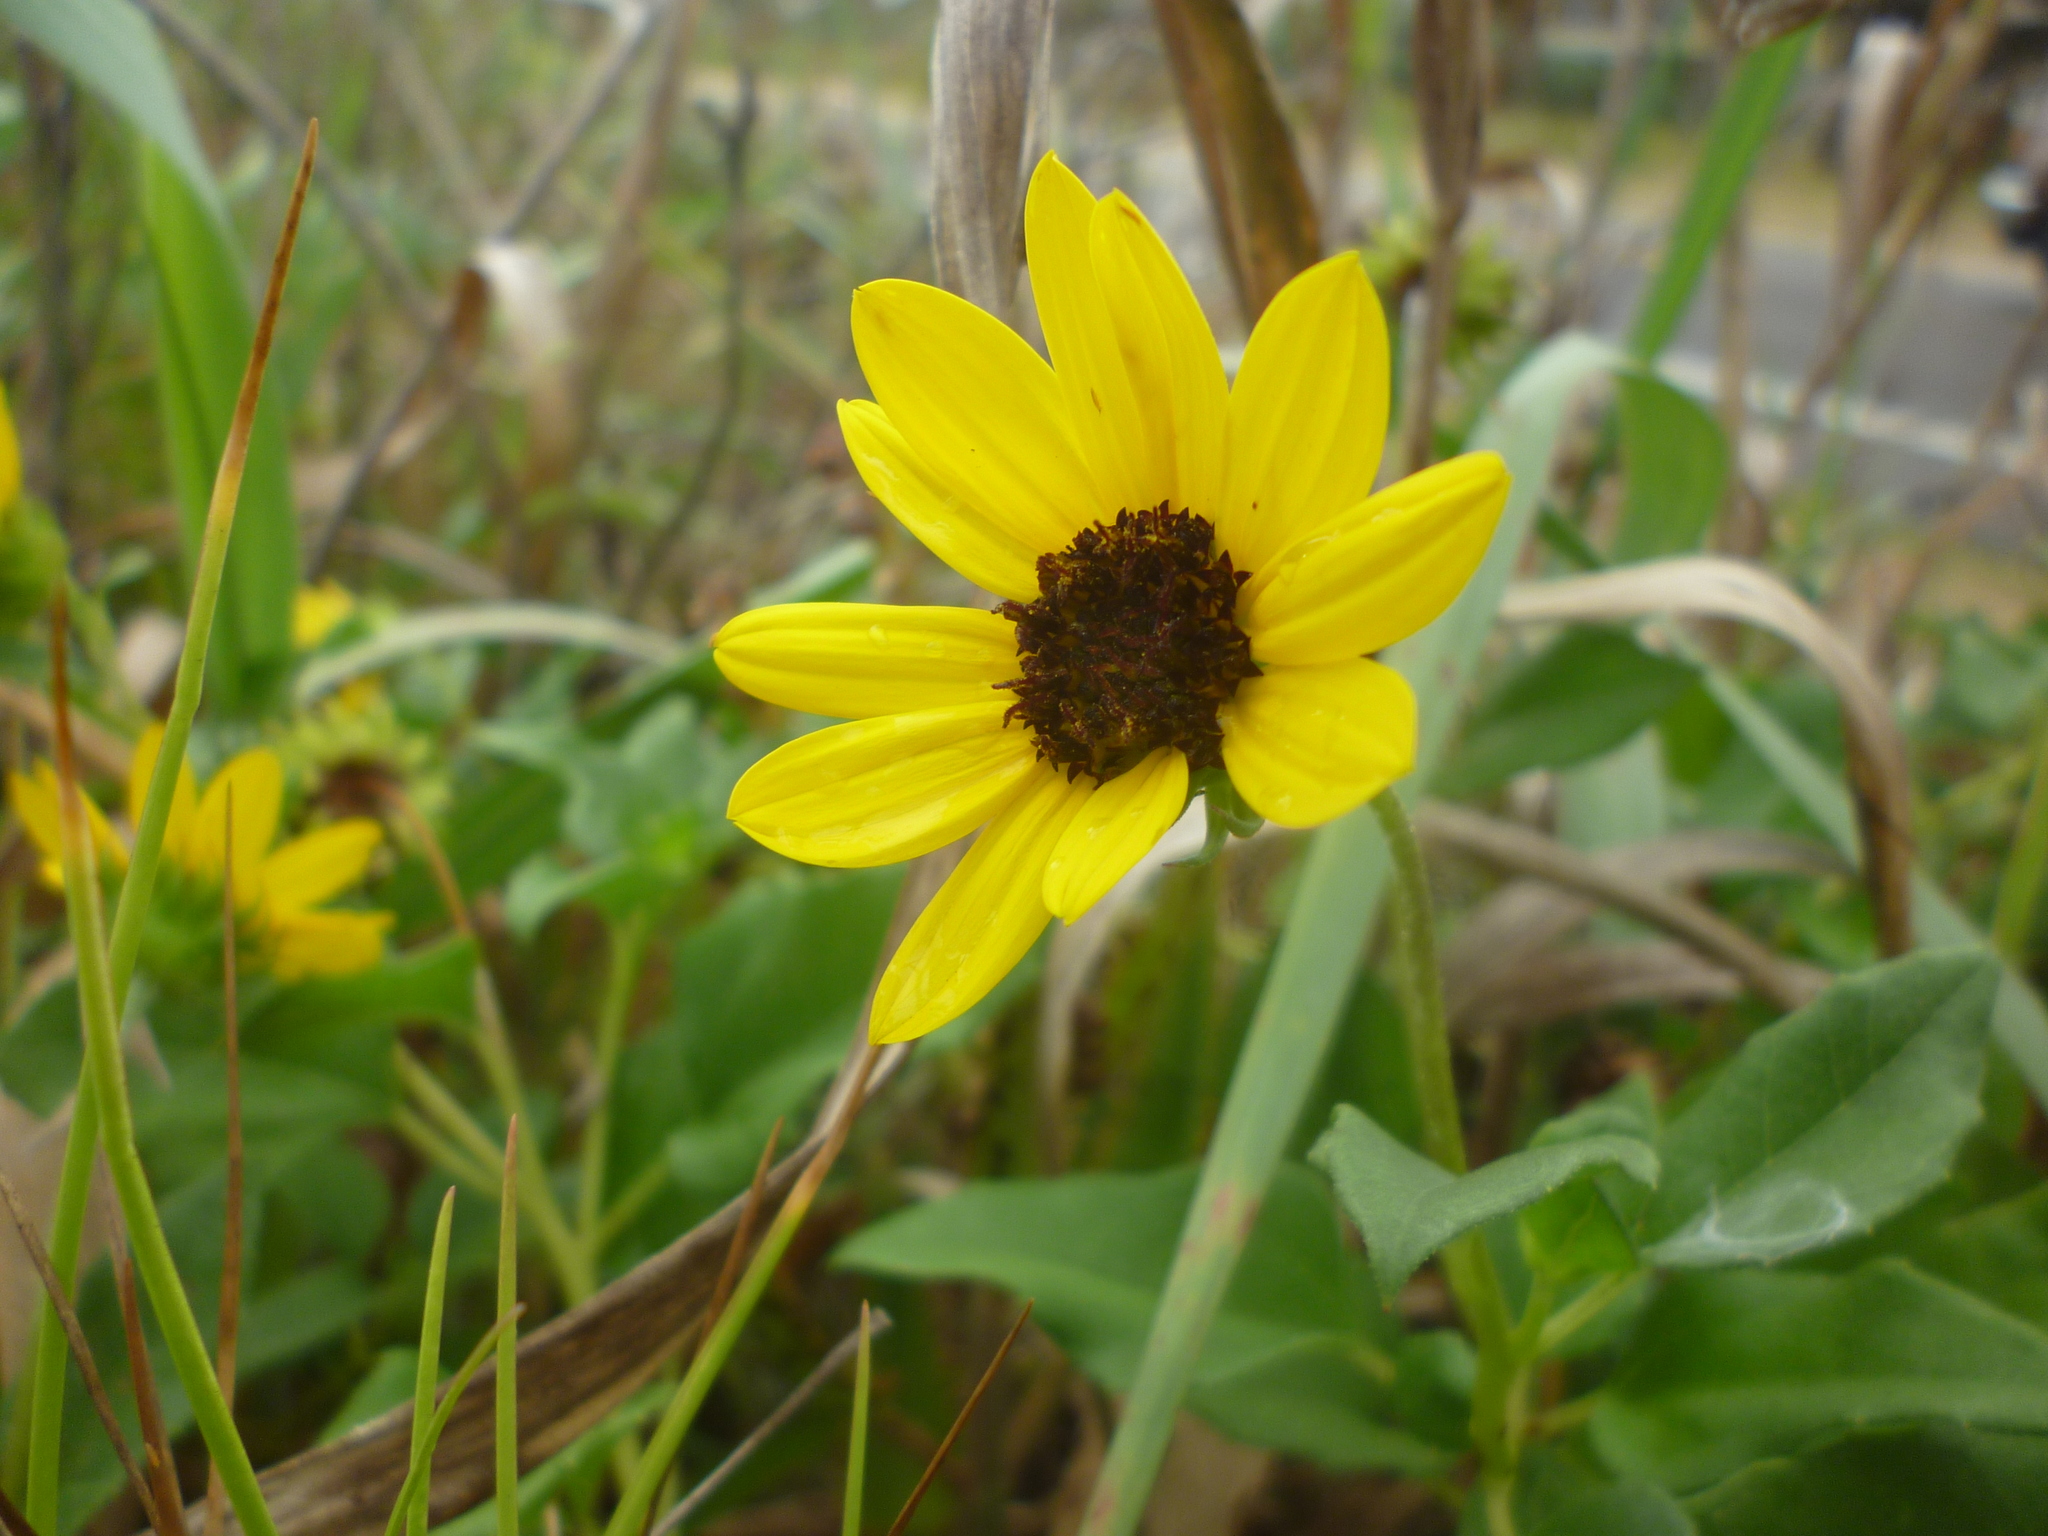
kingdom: Plantae
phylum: Tracheophyta
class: Magnoliopsida
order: Asterales
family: Asteraceae
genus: Helianthus
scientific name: Helianthus debilis
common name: Weak sunflower
